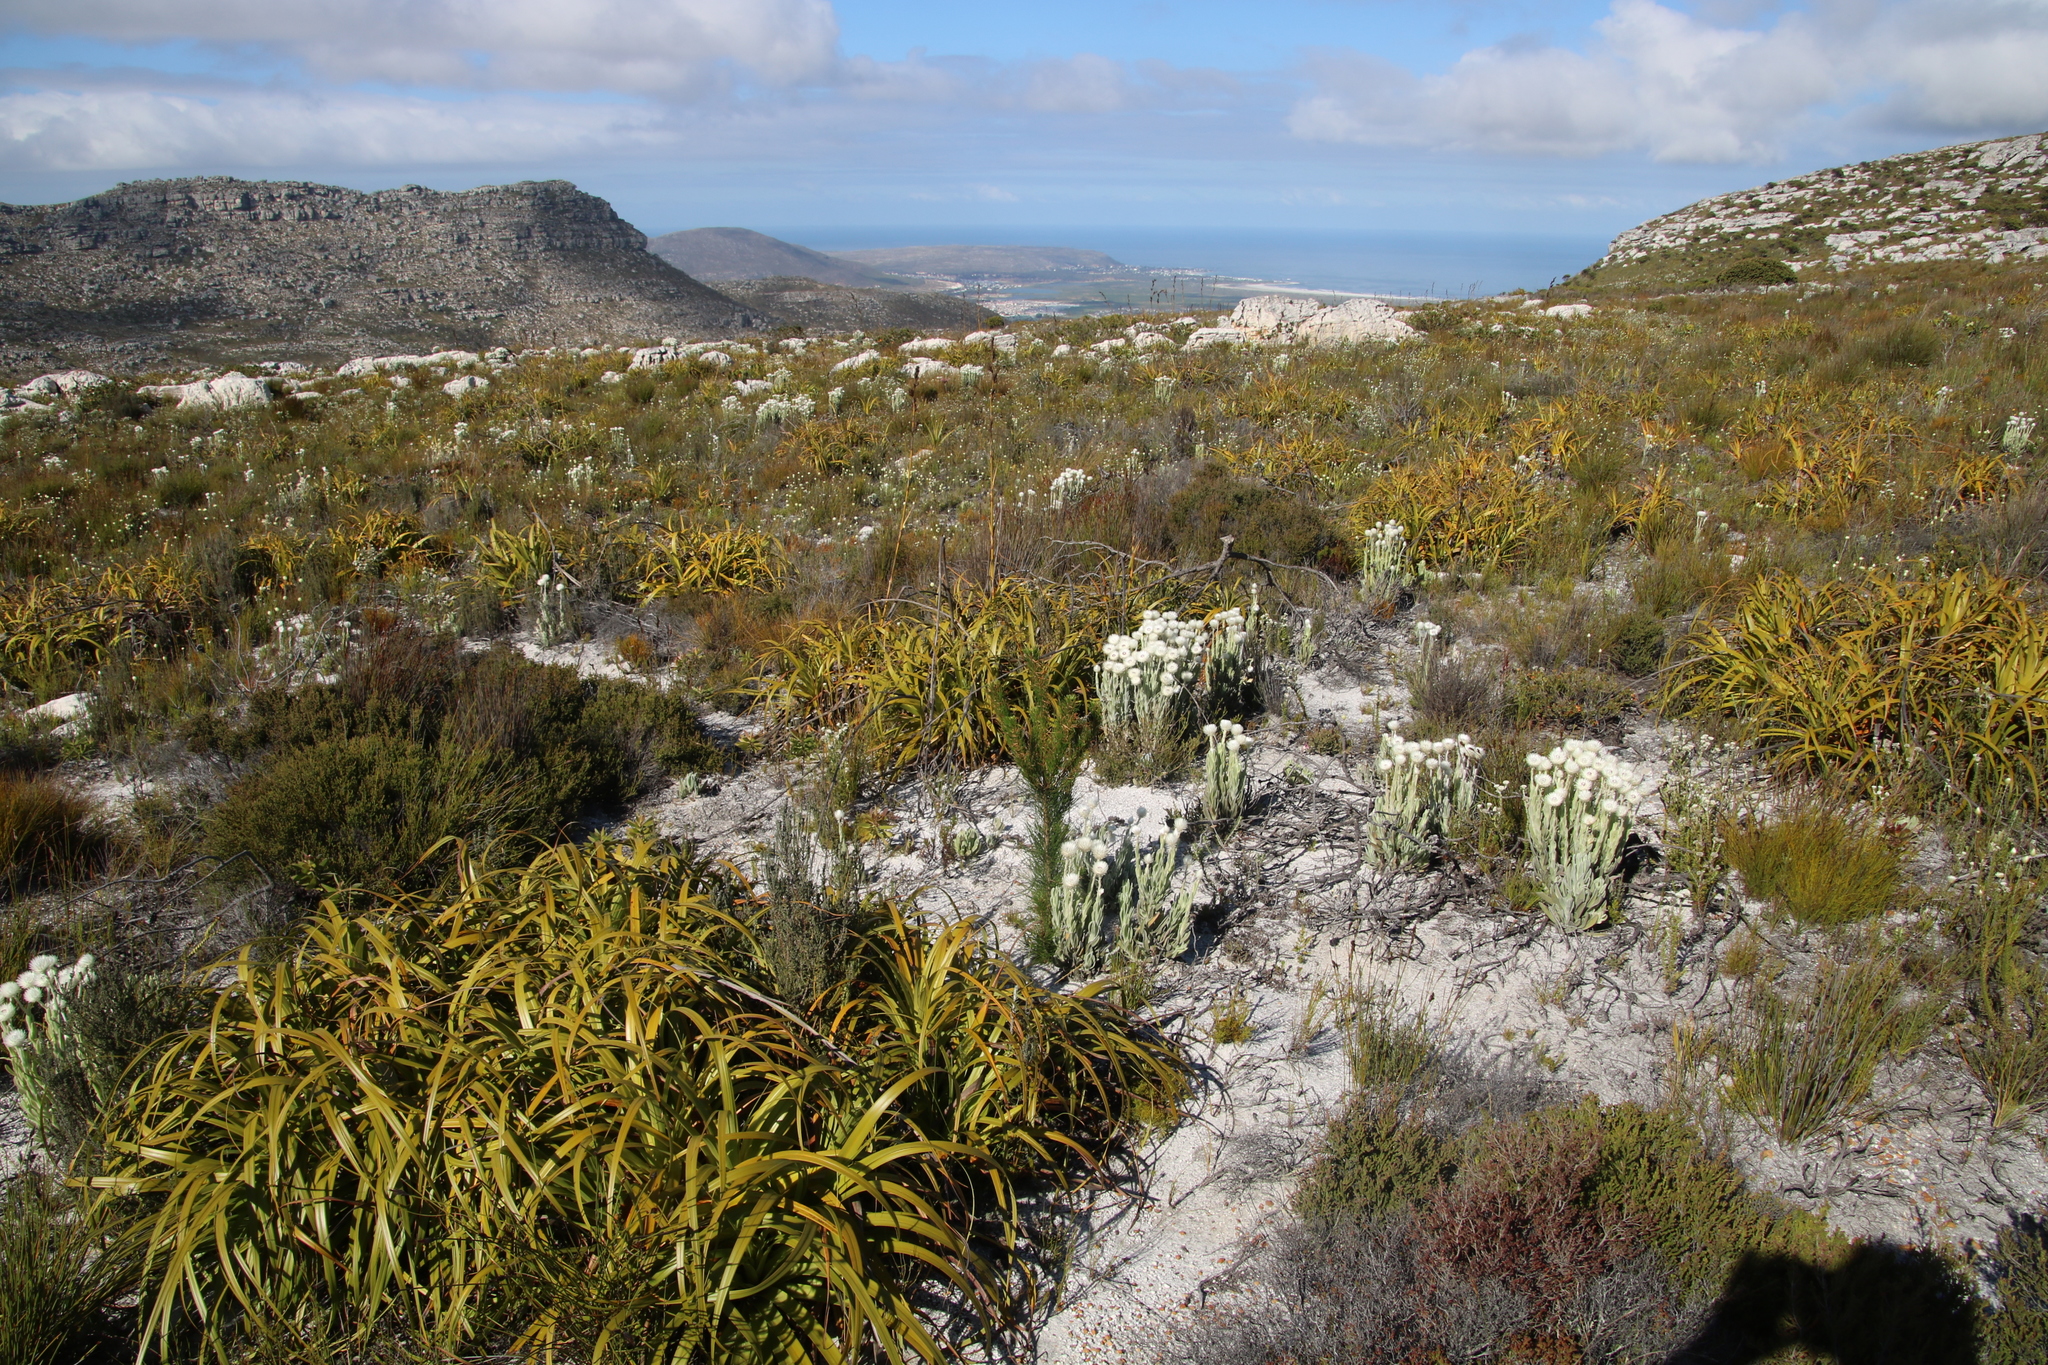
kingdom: Plantae
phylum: Tracheophyta
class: Liliopsida
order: Poales
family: Cyperaceae
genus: Tetraria
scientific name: Tetraria thermalis
